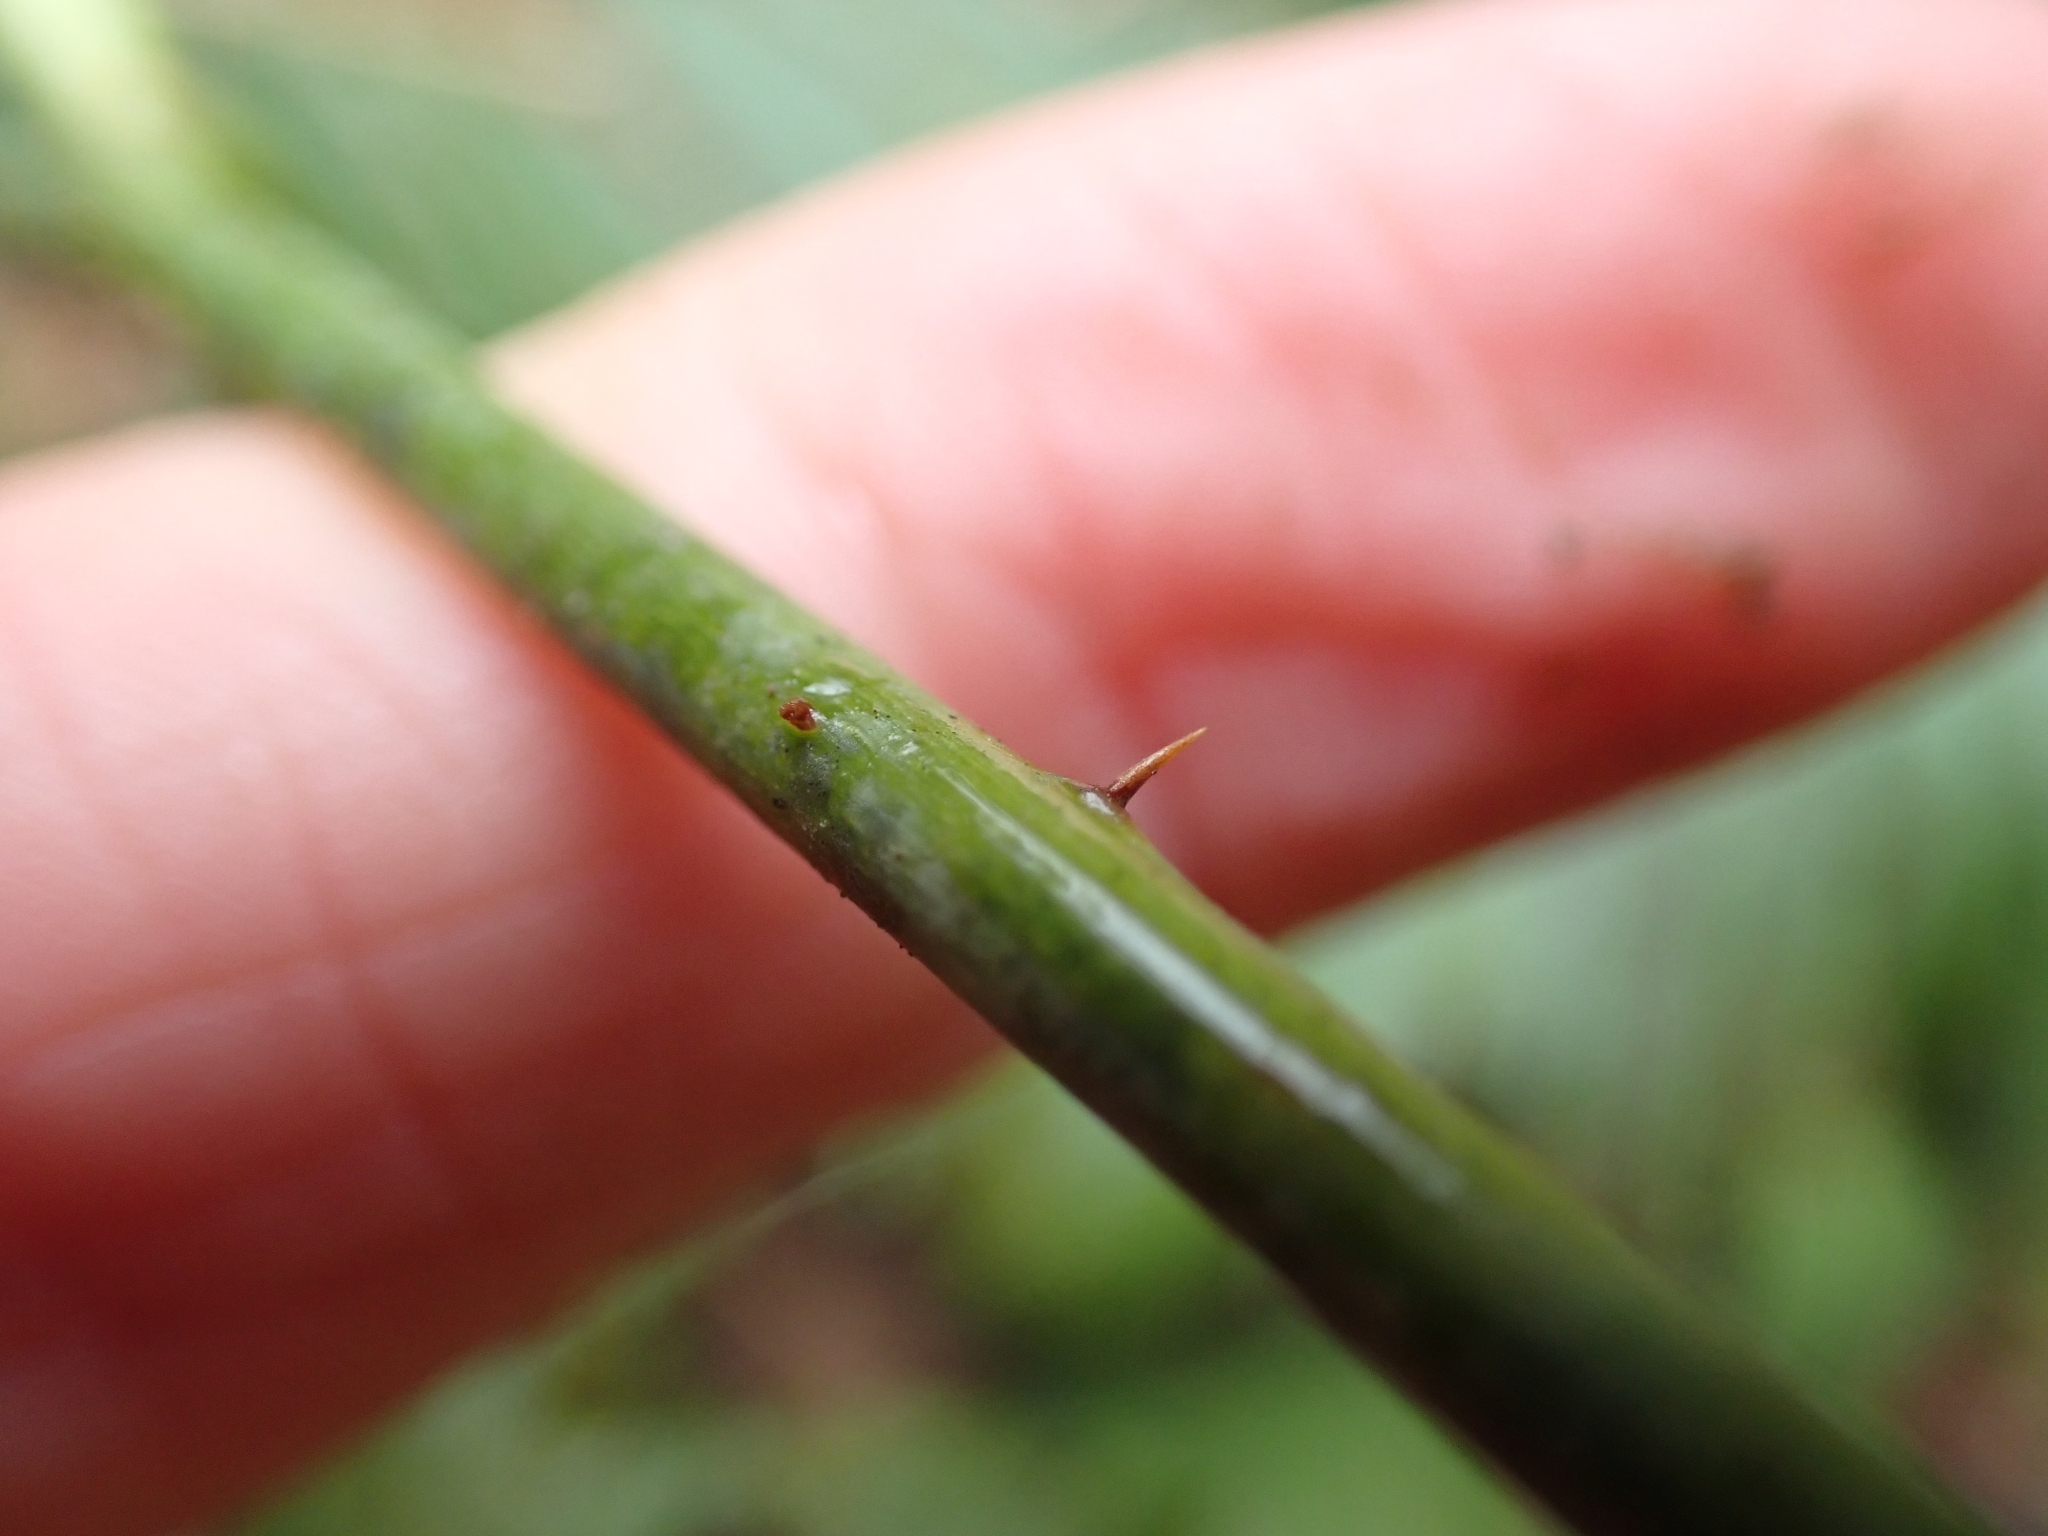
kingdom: Plantae
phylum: Tracheophyta
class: Magnoliopsida
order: Rosales
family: Rosaceae
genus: Rubus
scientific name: Rubus ursinus
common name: Pacific blackberry
